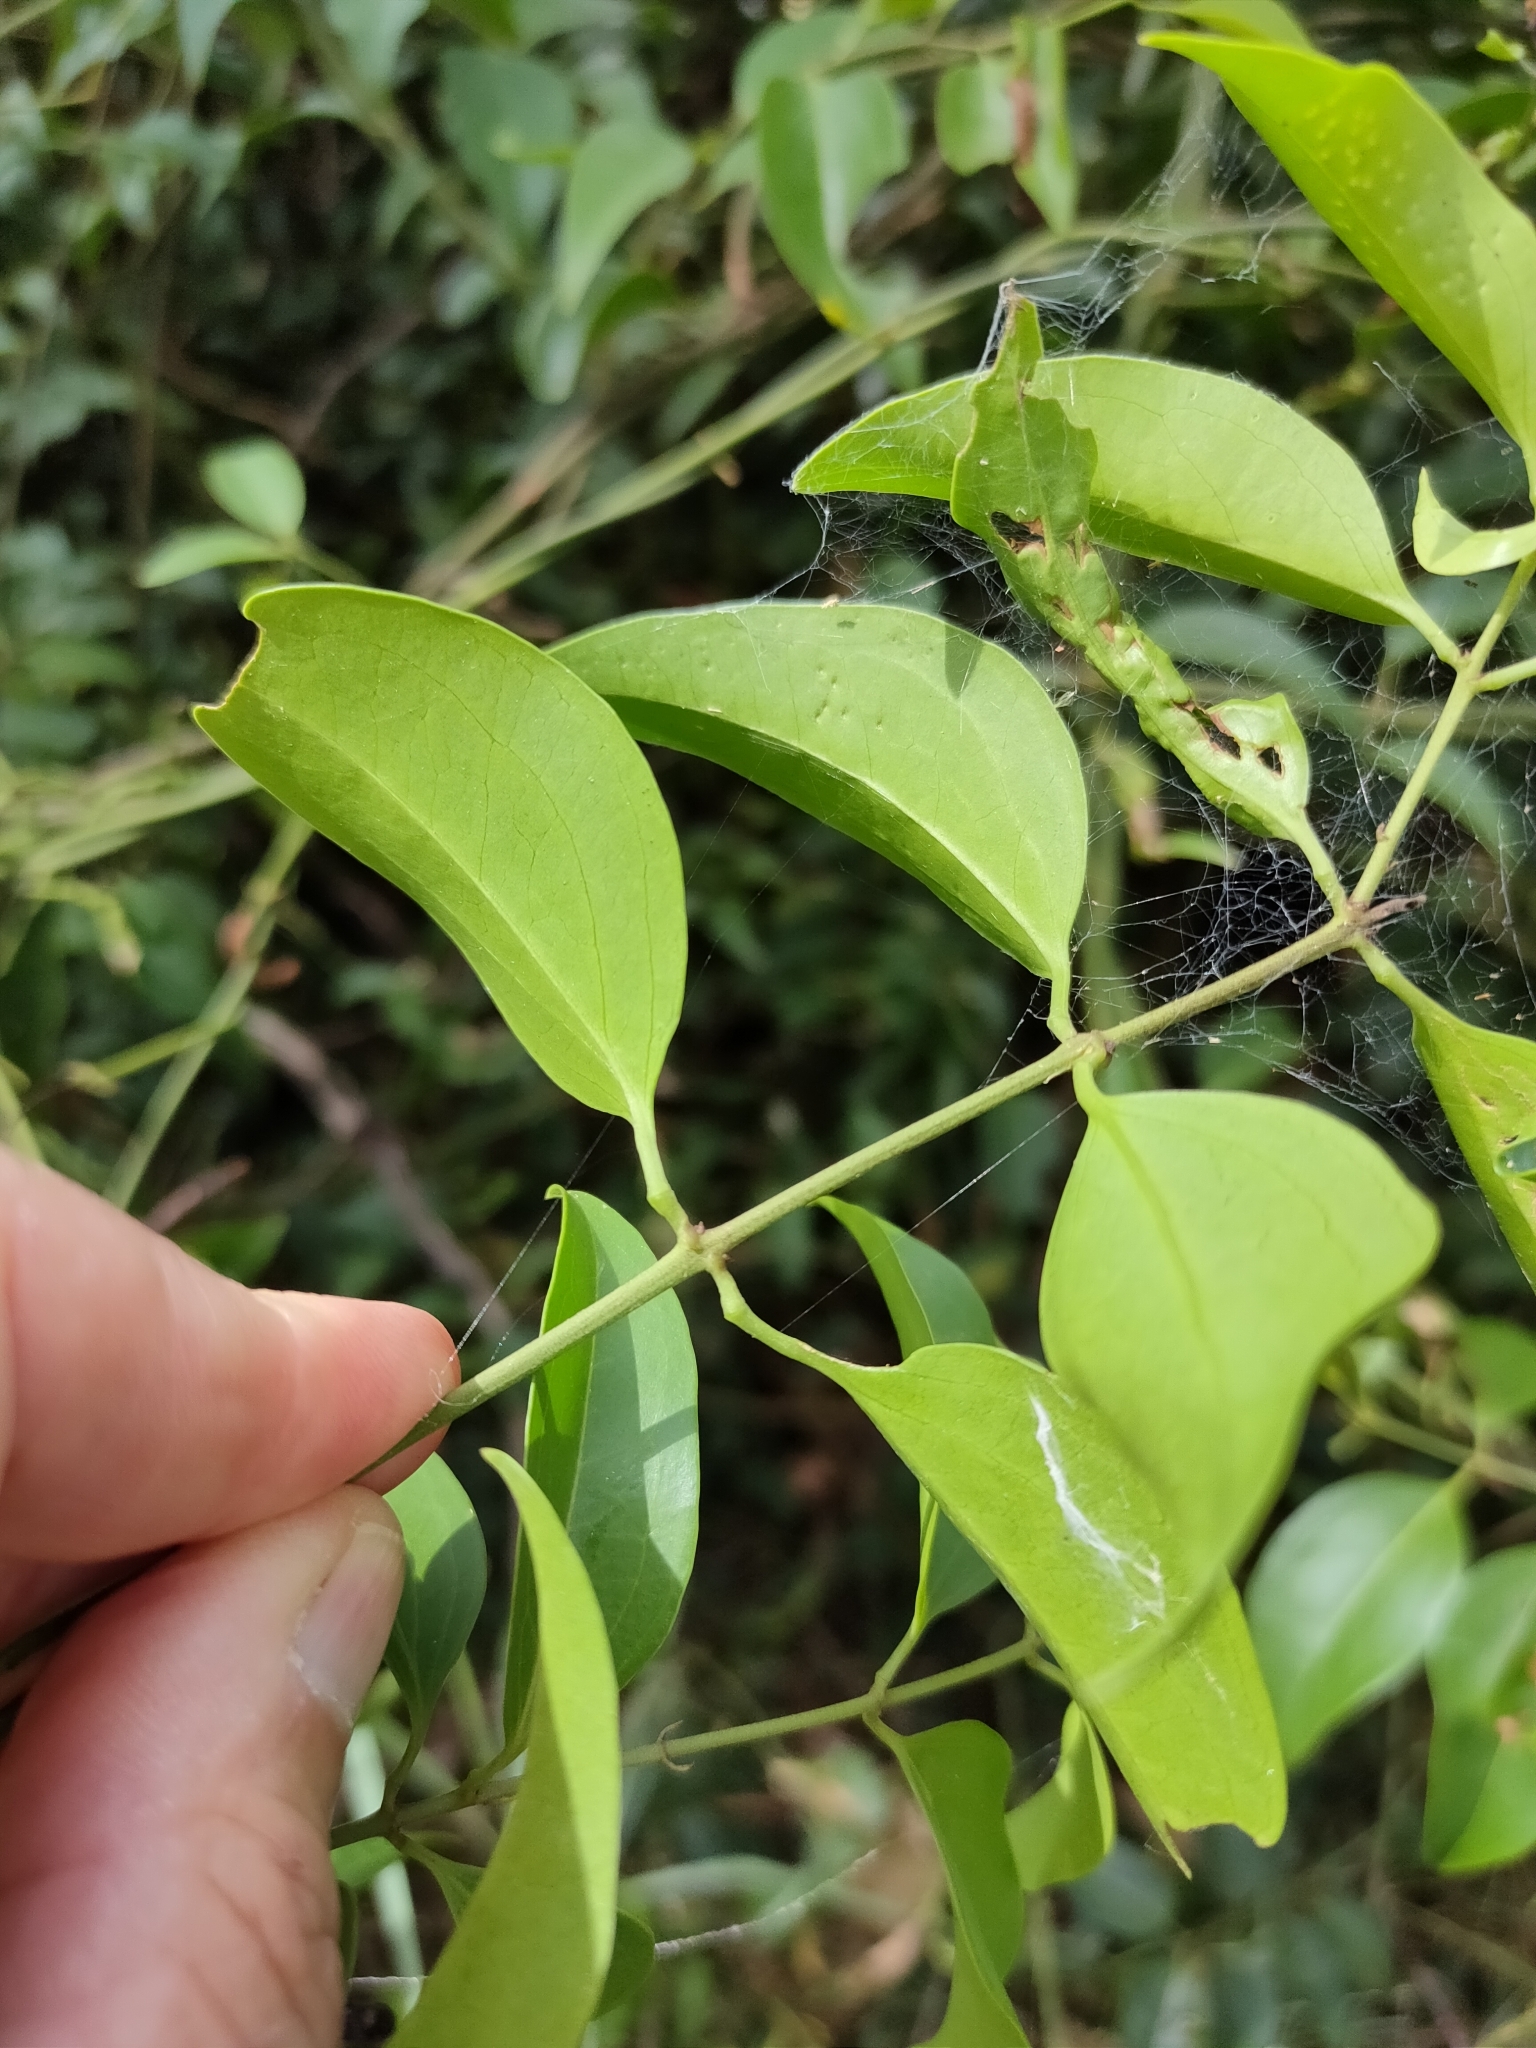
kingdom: Plantae
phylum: Tracheophyta
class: Magnoliopsida
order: Lamiales
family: Oleaceae
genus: Jasminum
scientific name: Jasminum simplicifolium
